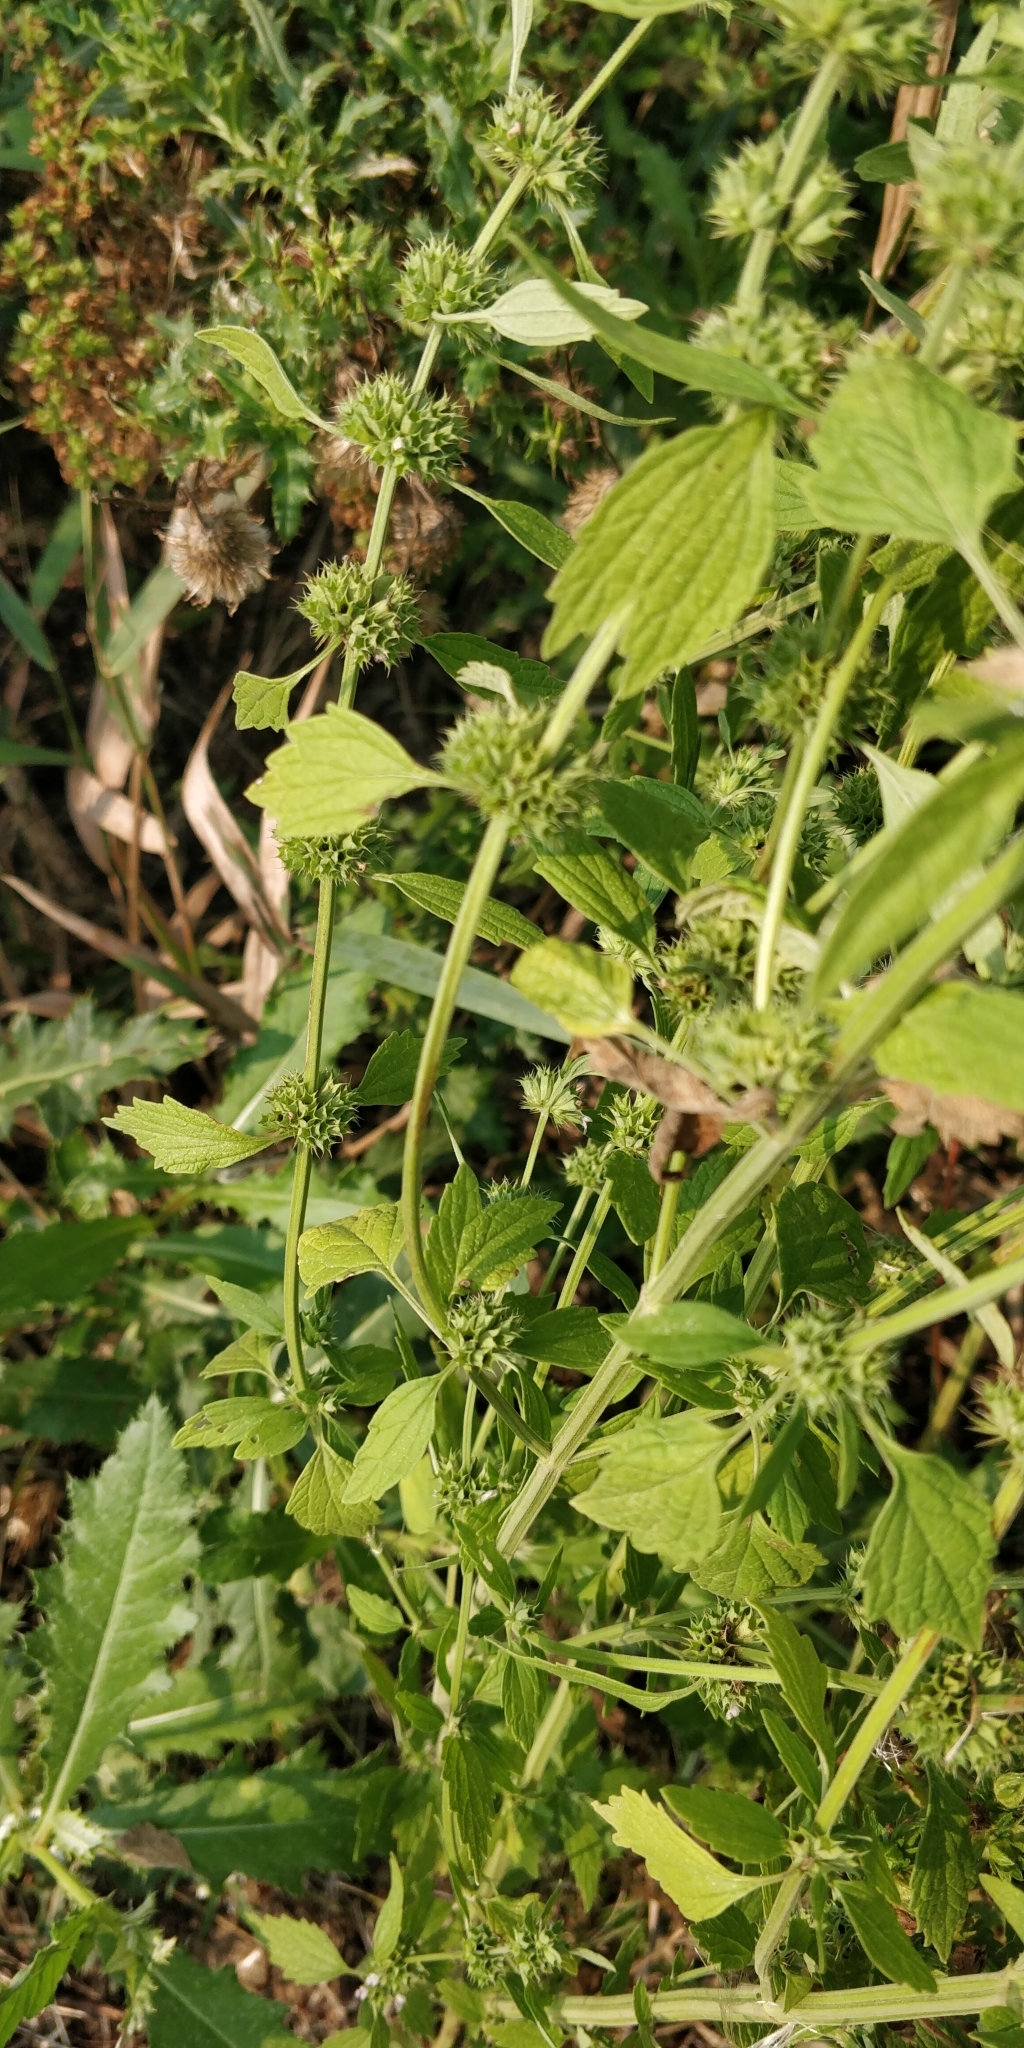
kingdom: Plantae
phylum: Tracheophyta
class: Magnoliopsida
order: Lamiales
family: Lamiaceae
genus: Chaiturus
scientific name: Chaiturus marrubiastrum
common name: Lion's tail
